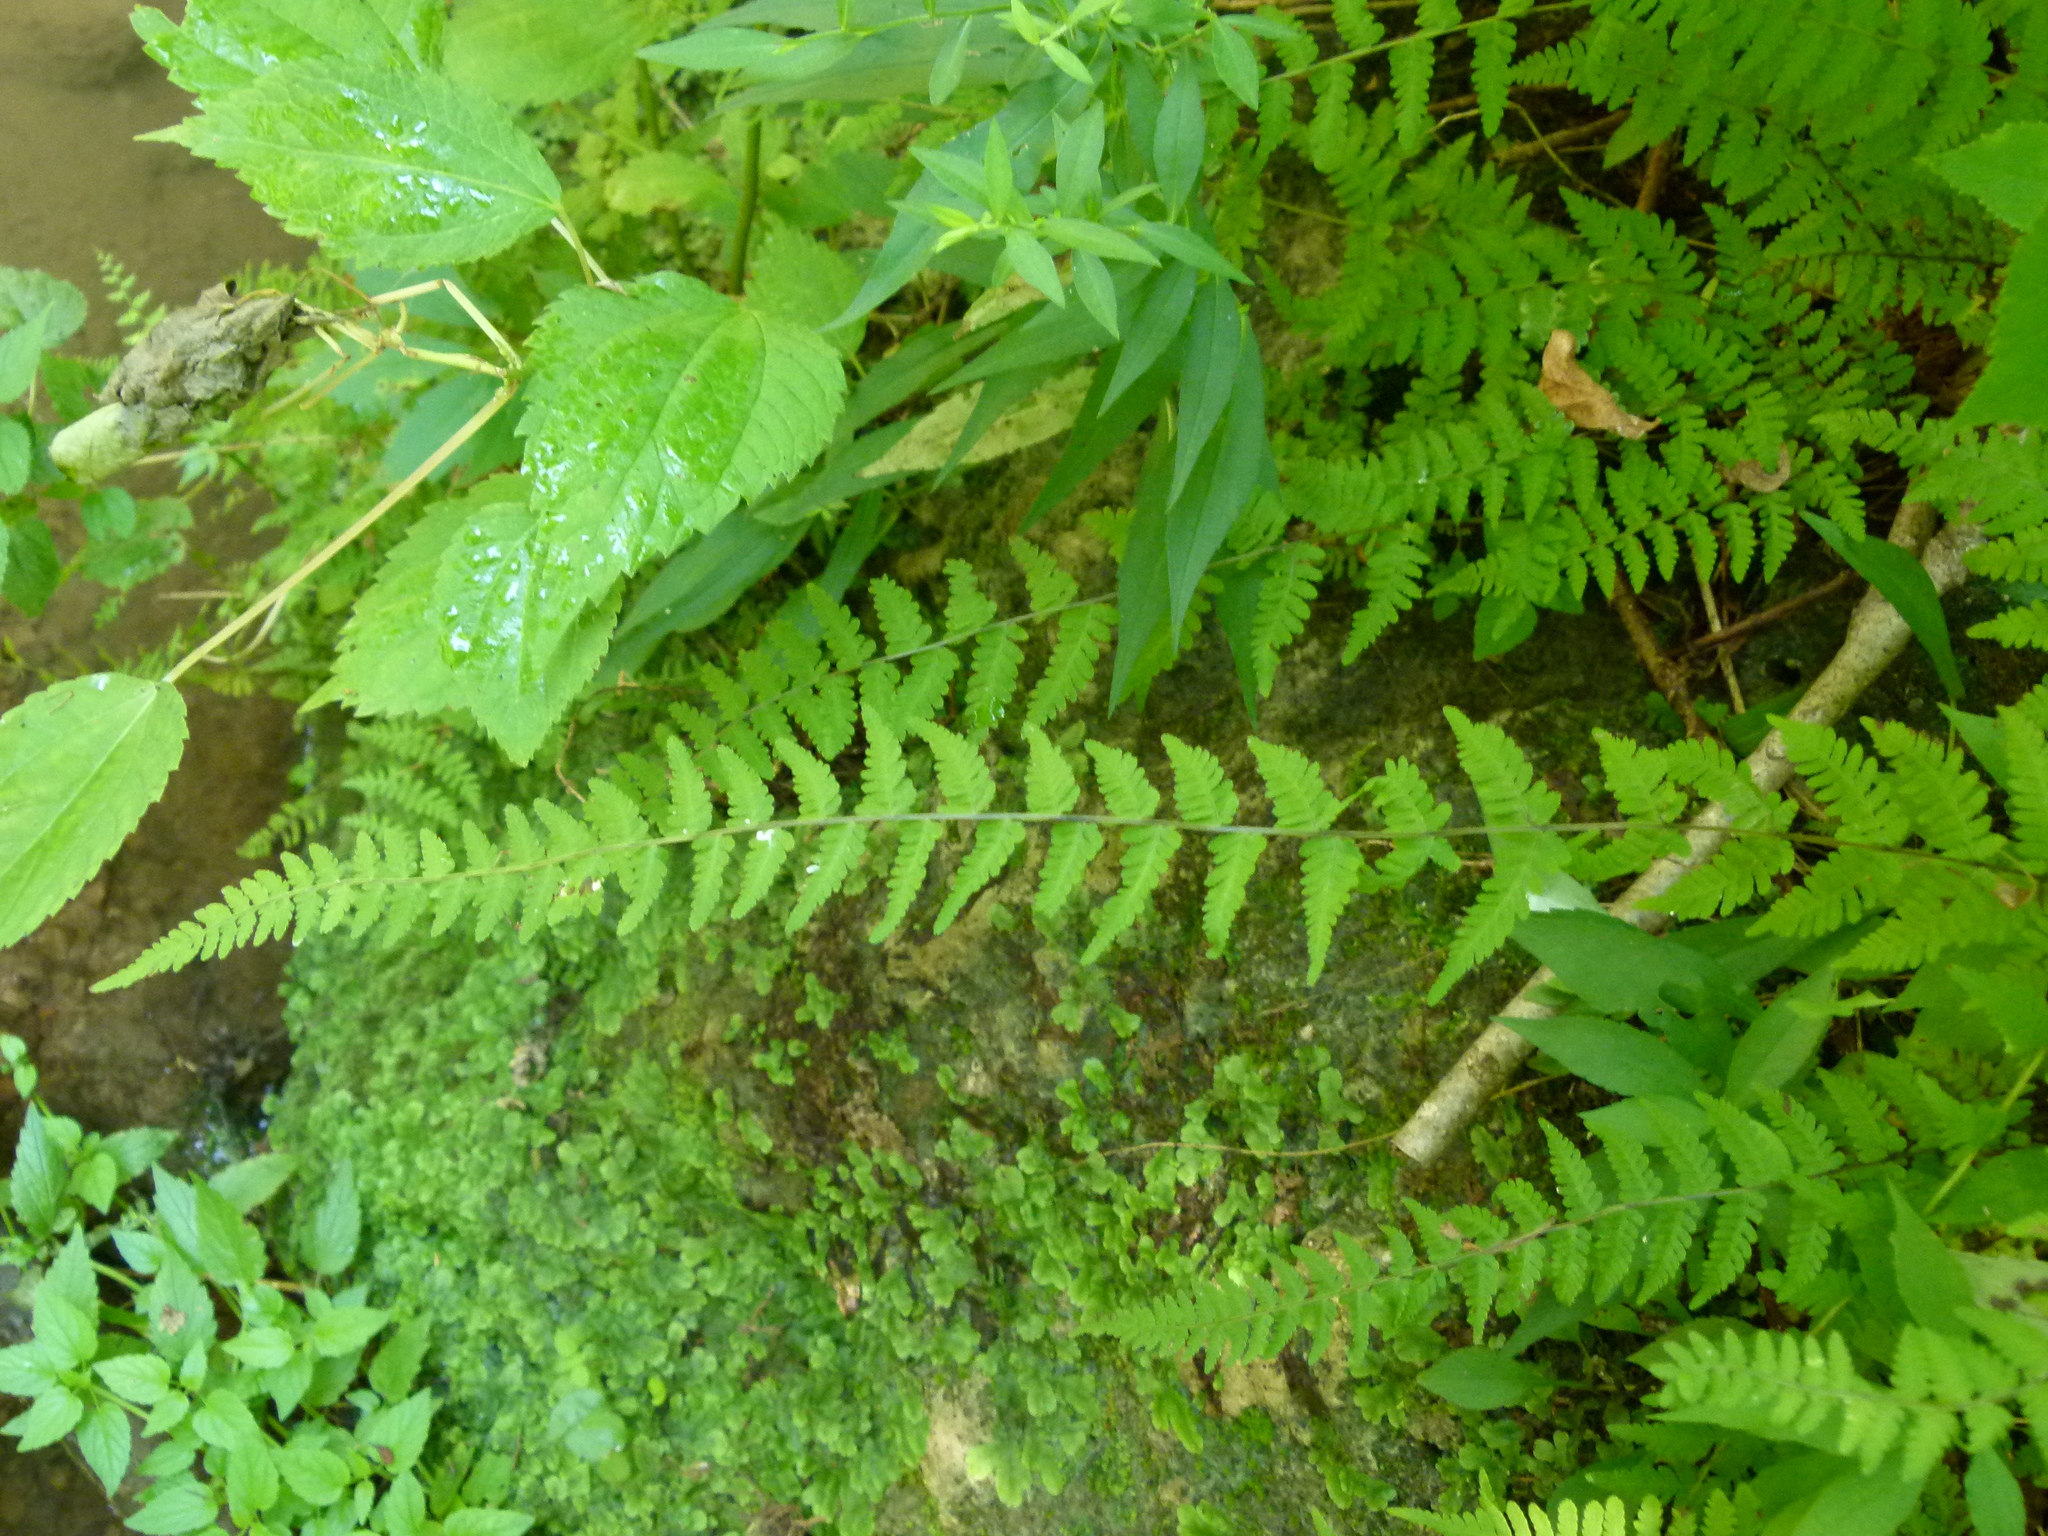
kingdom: Plantae
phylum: Tracheophyta
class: Polypodiopsida
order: Polypodiales
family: Cystopteridaceae
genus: Cystopteris
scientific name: Cystopteris bulbifera
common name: Bulblet bladder fern
